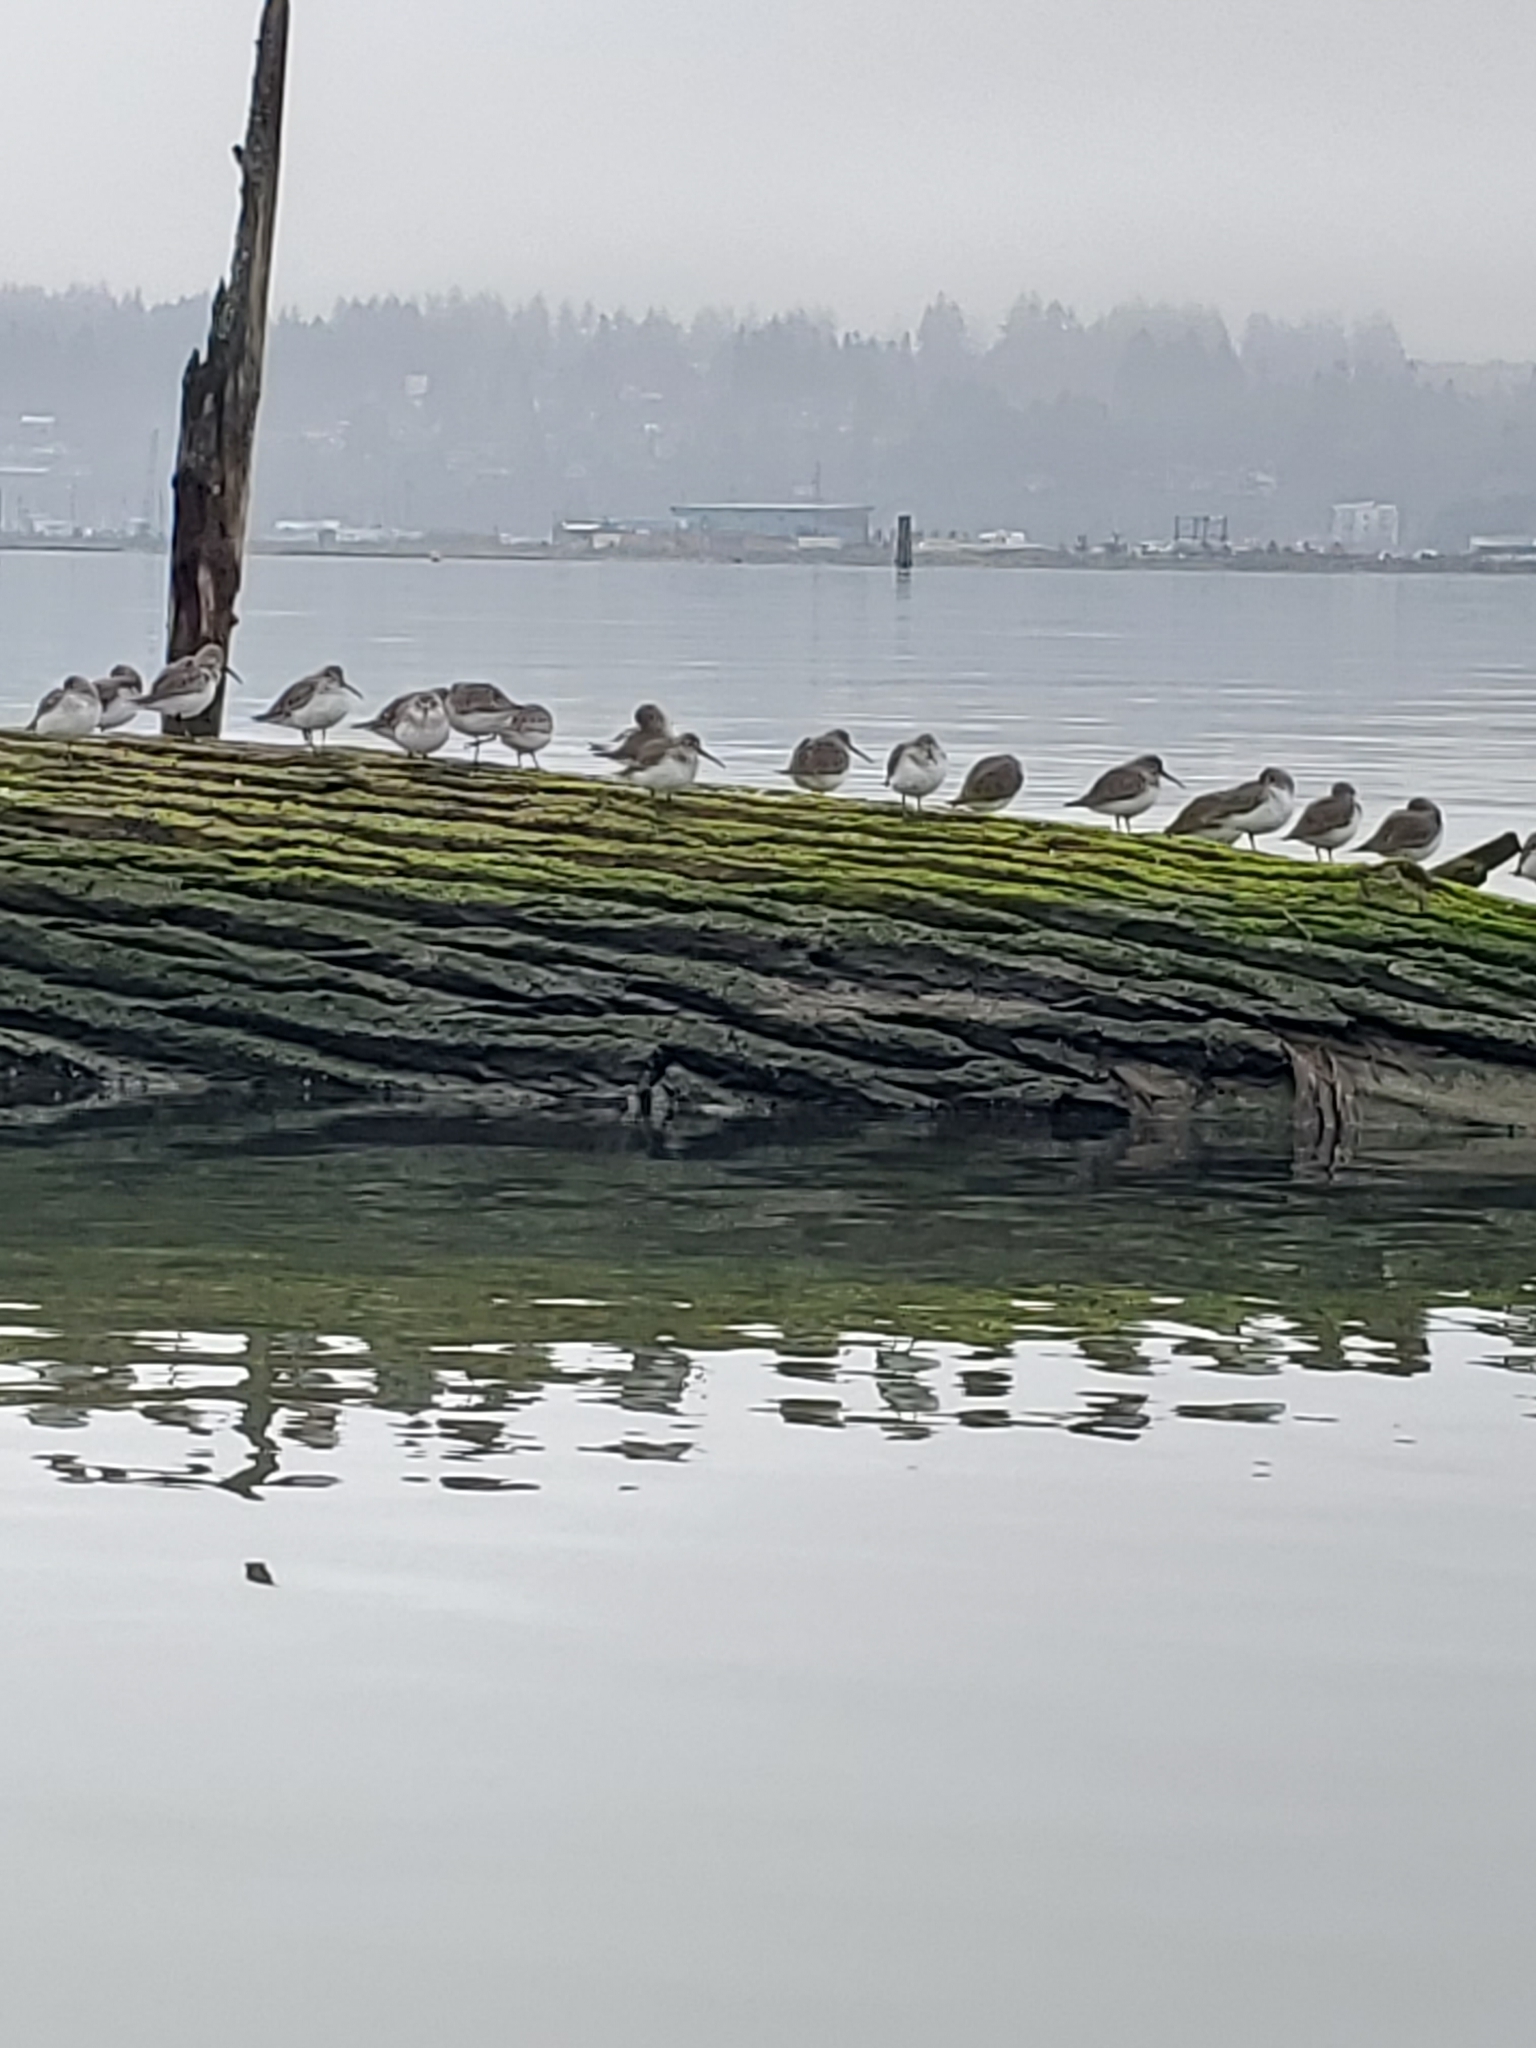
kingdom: Animalia
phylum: Chordata
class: Aves
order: Charadriiformes
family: Scolopacidae
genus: Calidris
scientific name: Calidris alpina
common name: Dunlin
